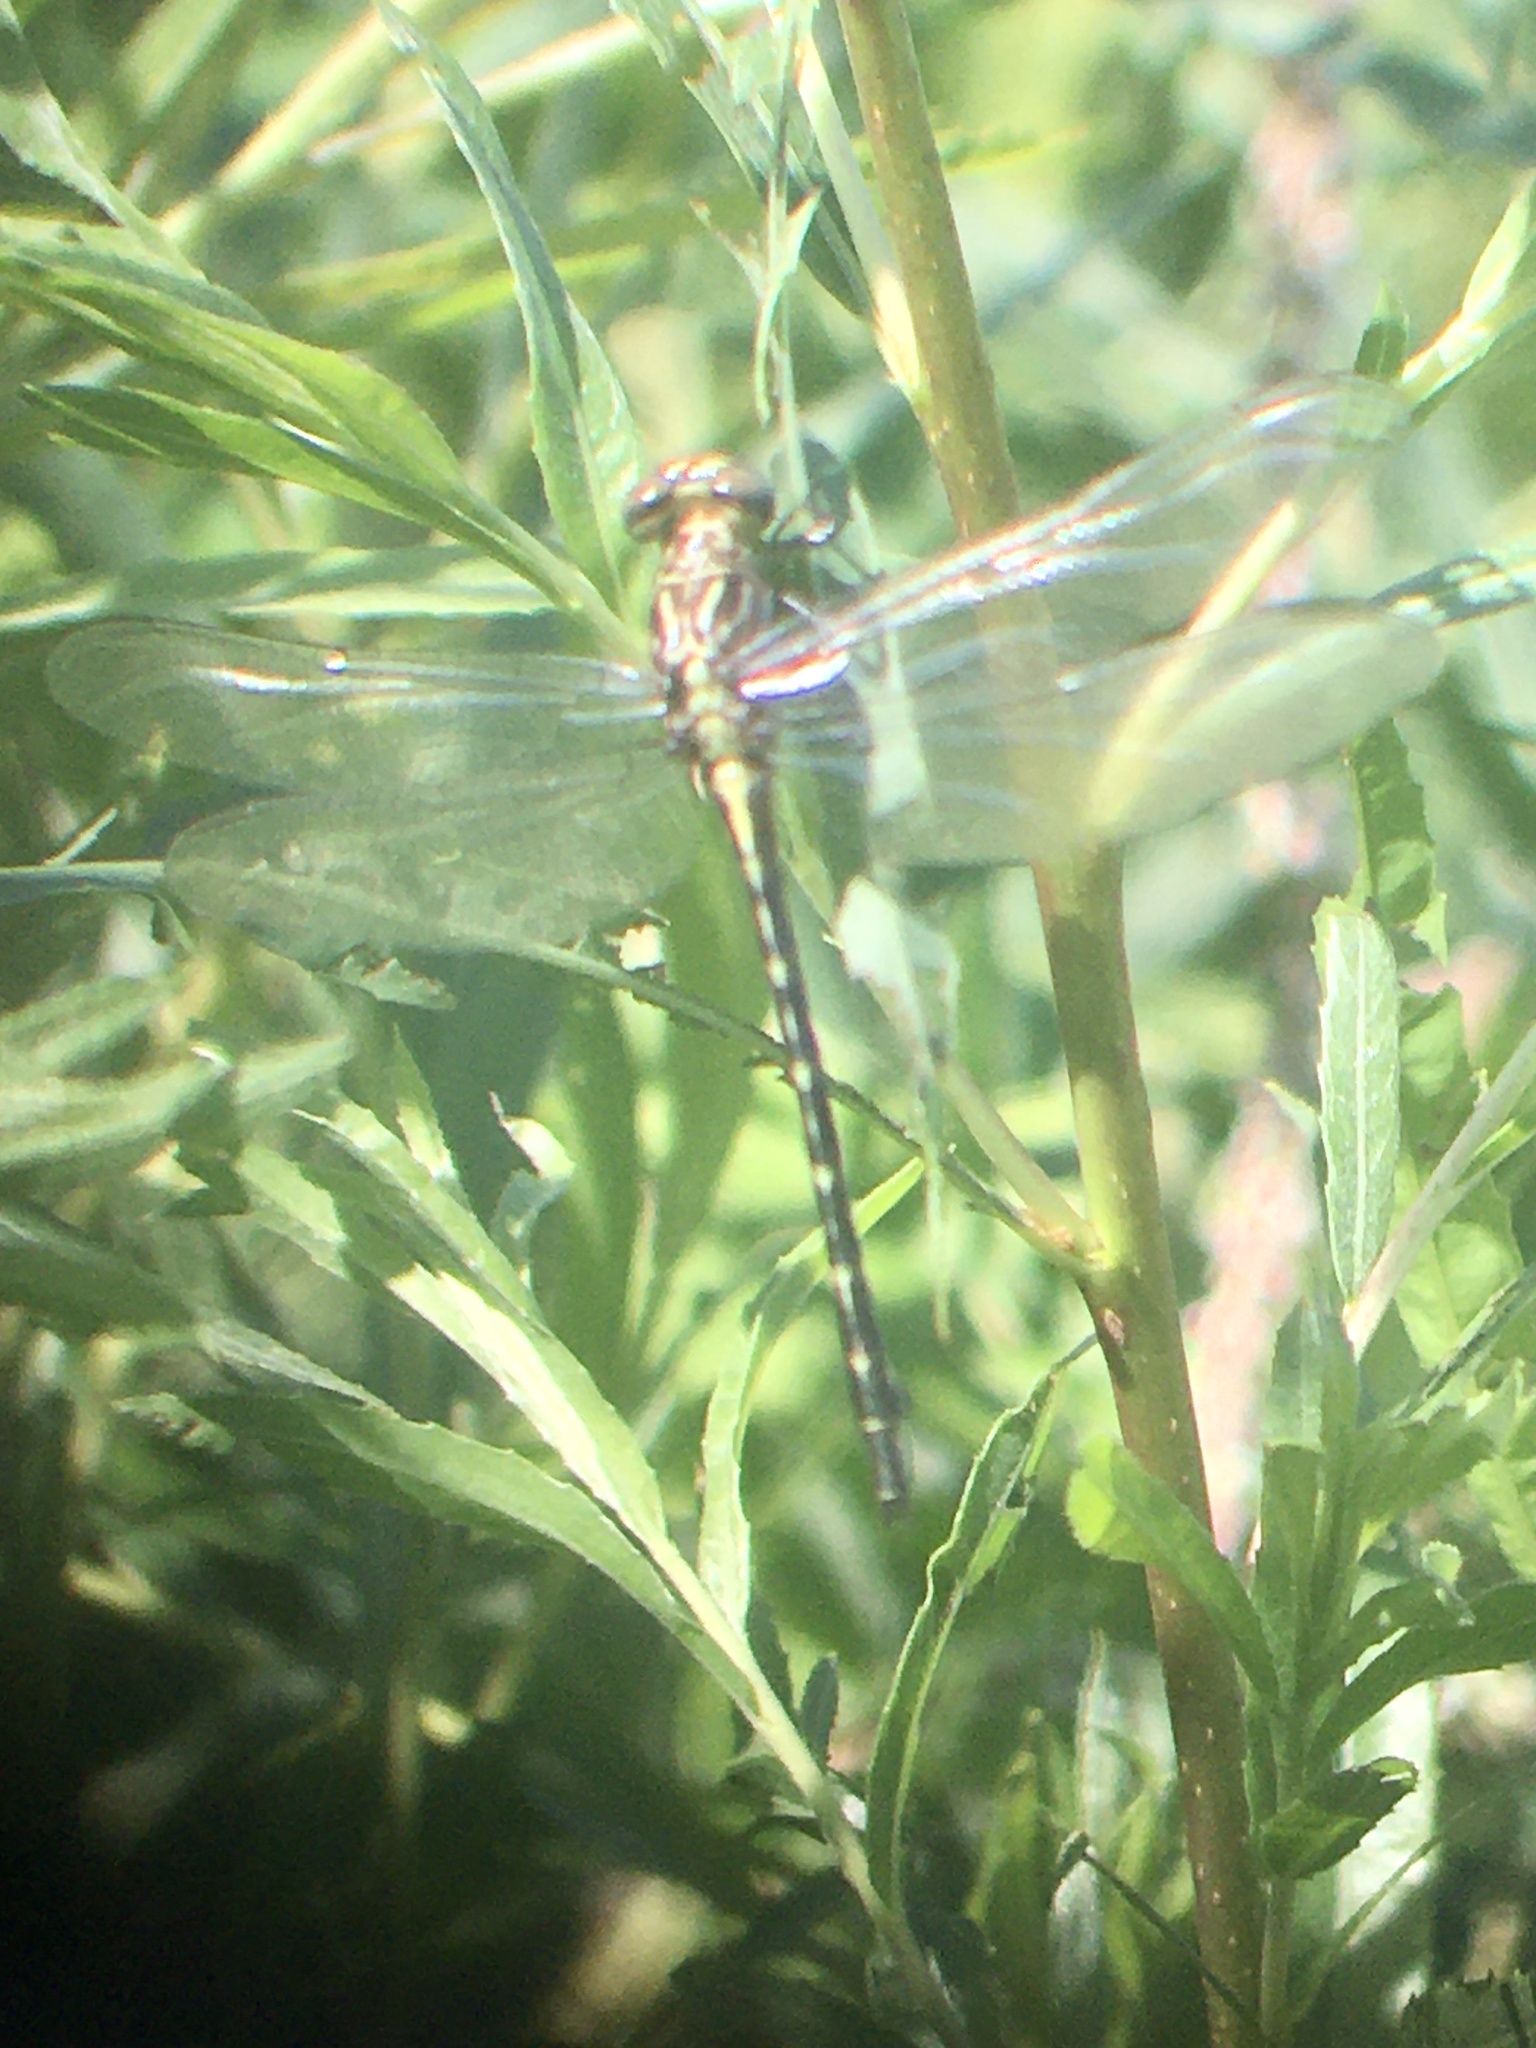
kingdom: Animalia
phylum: Arthropoda
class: Insecta
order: Odonata
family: Gomphidae
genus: Stylurus
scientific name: Stylurus spiniceps
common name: Arrow clubtail
